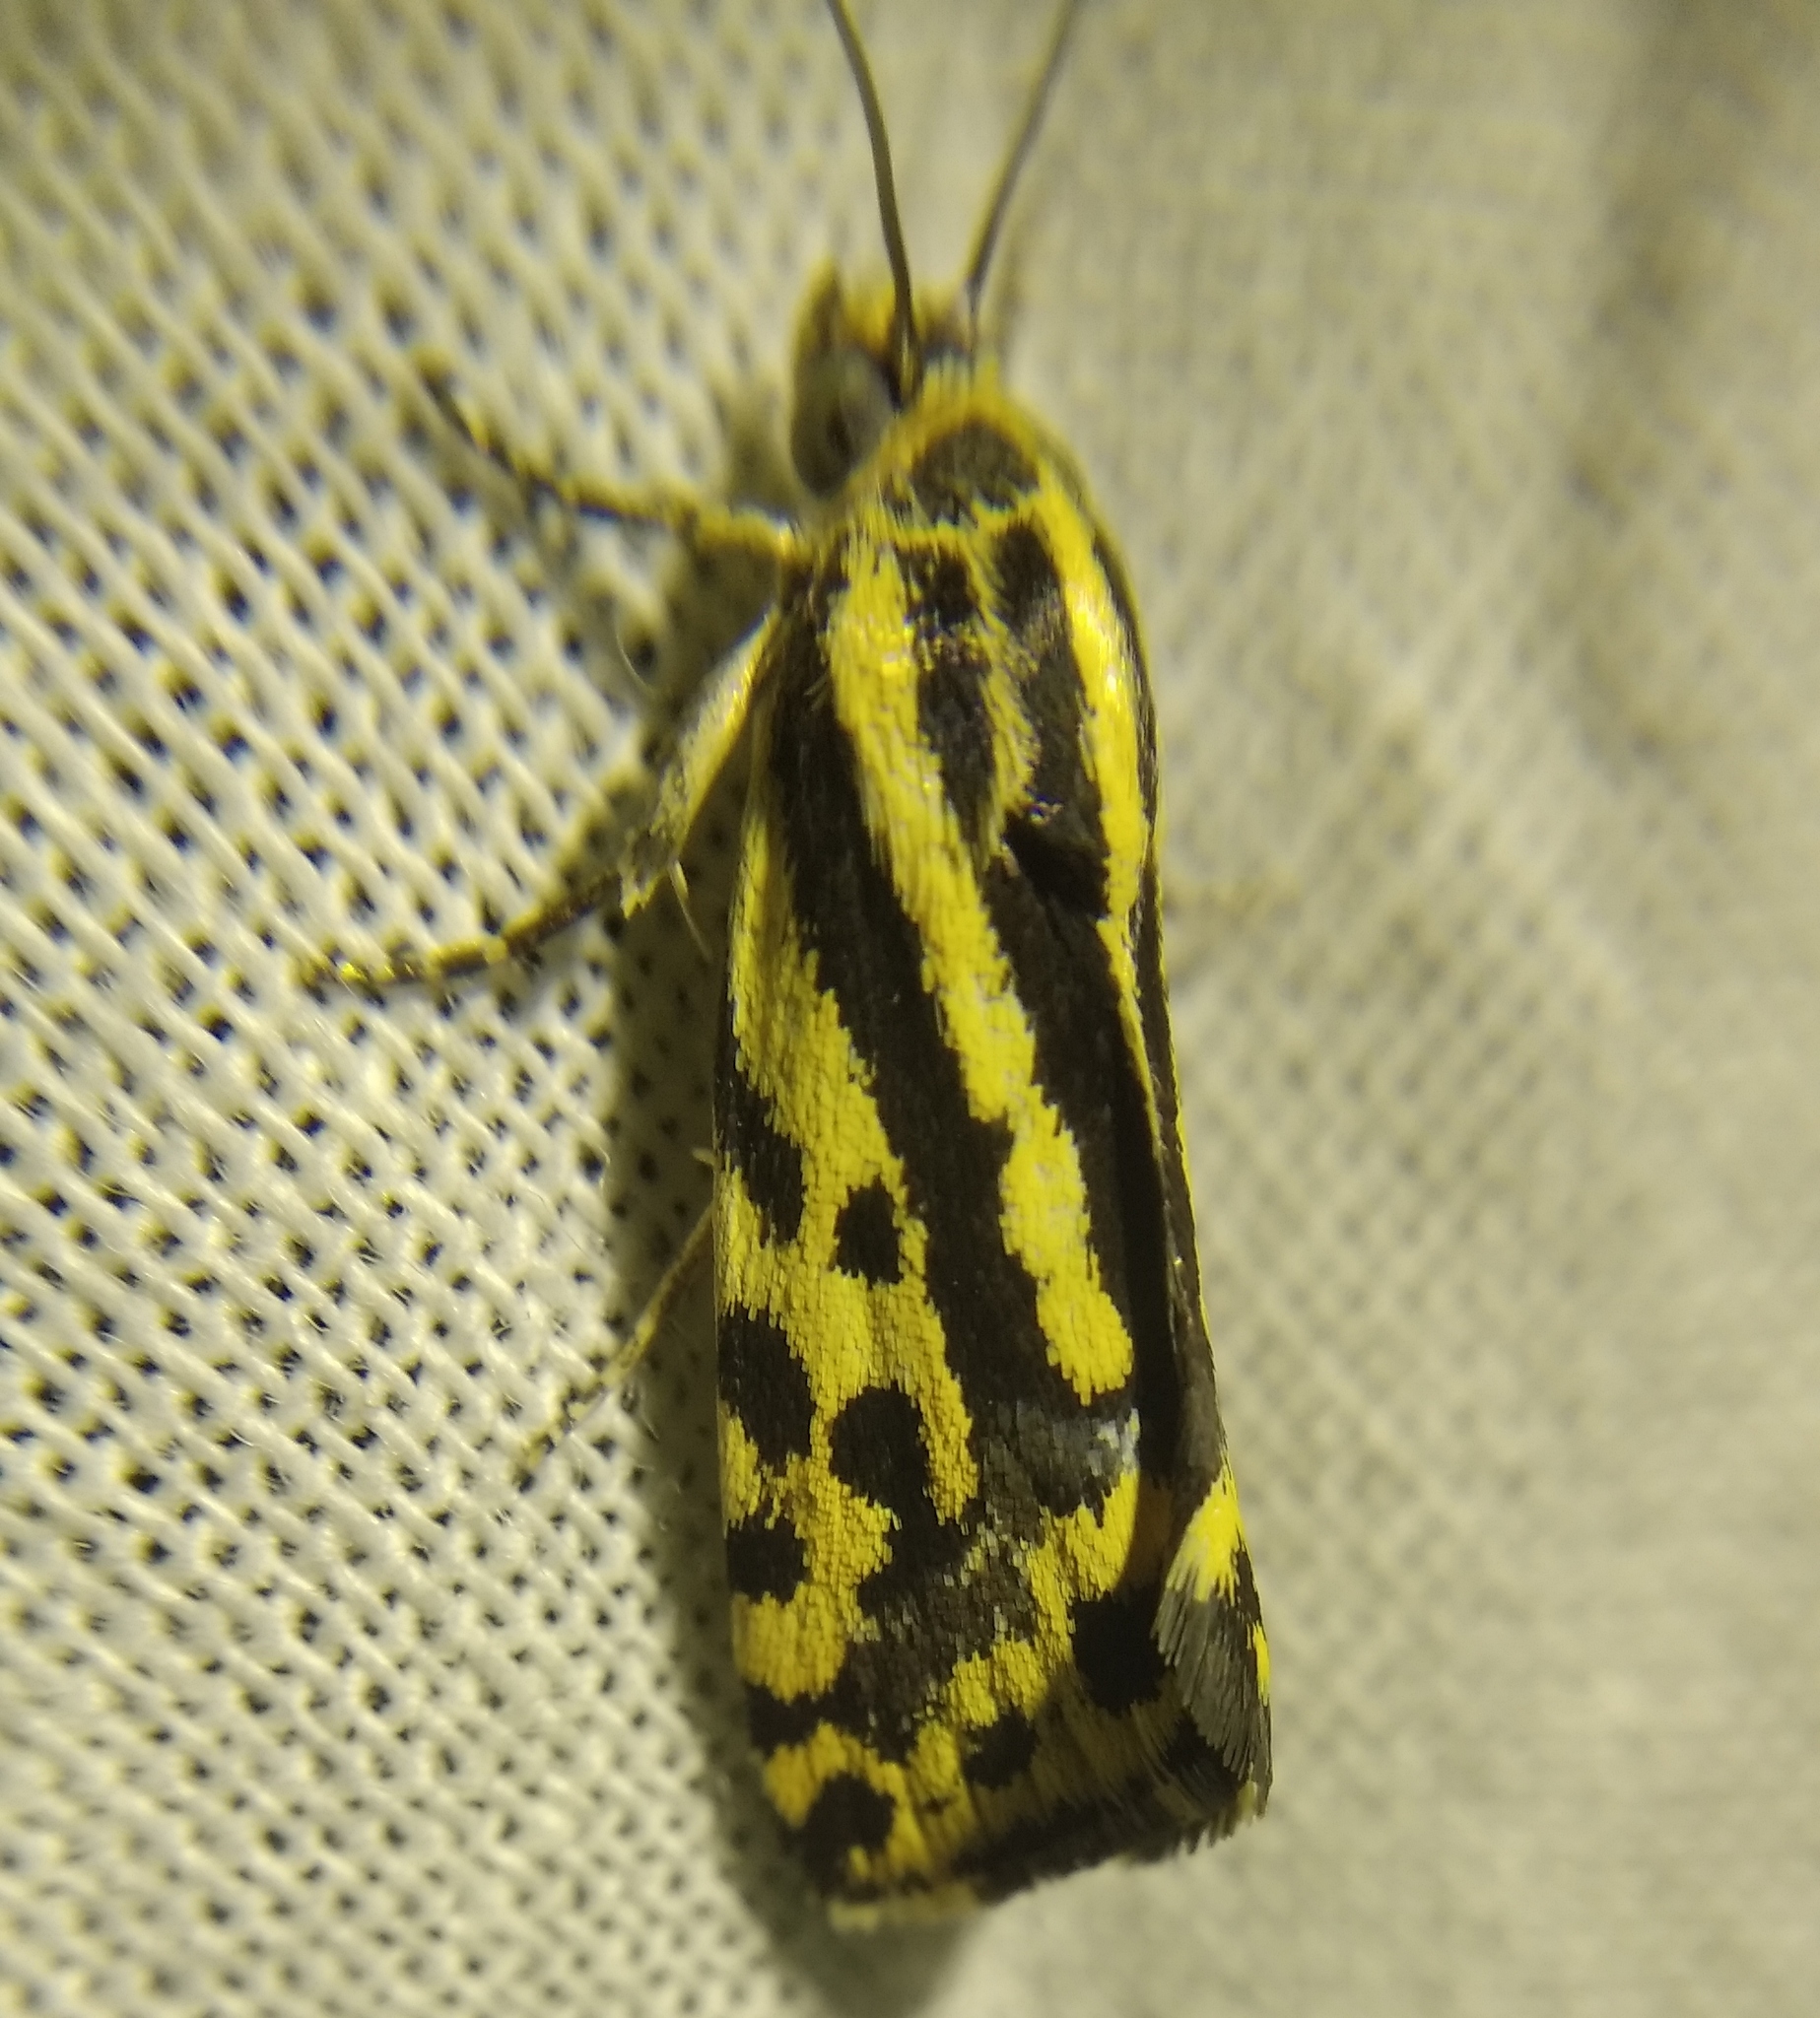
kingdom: Animalia
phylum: Arthropoda
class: Insecta
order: Lepidoptera
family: Noctuidae
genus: Acontia
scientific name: Acontia trabealis
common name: Spotted sulphur
